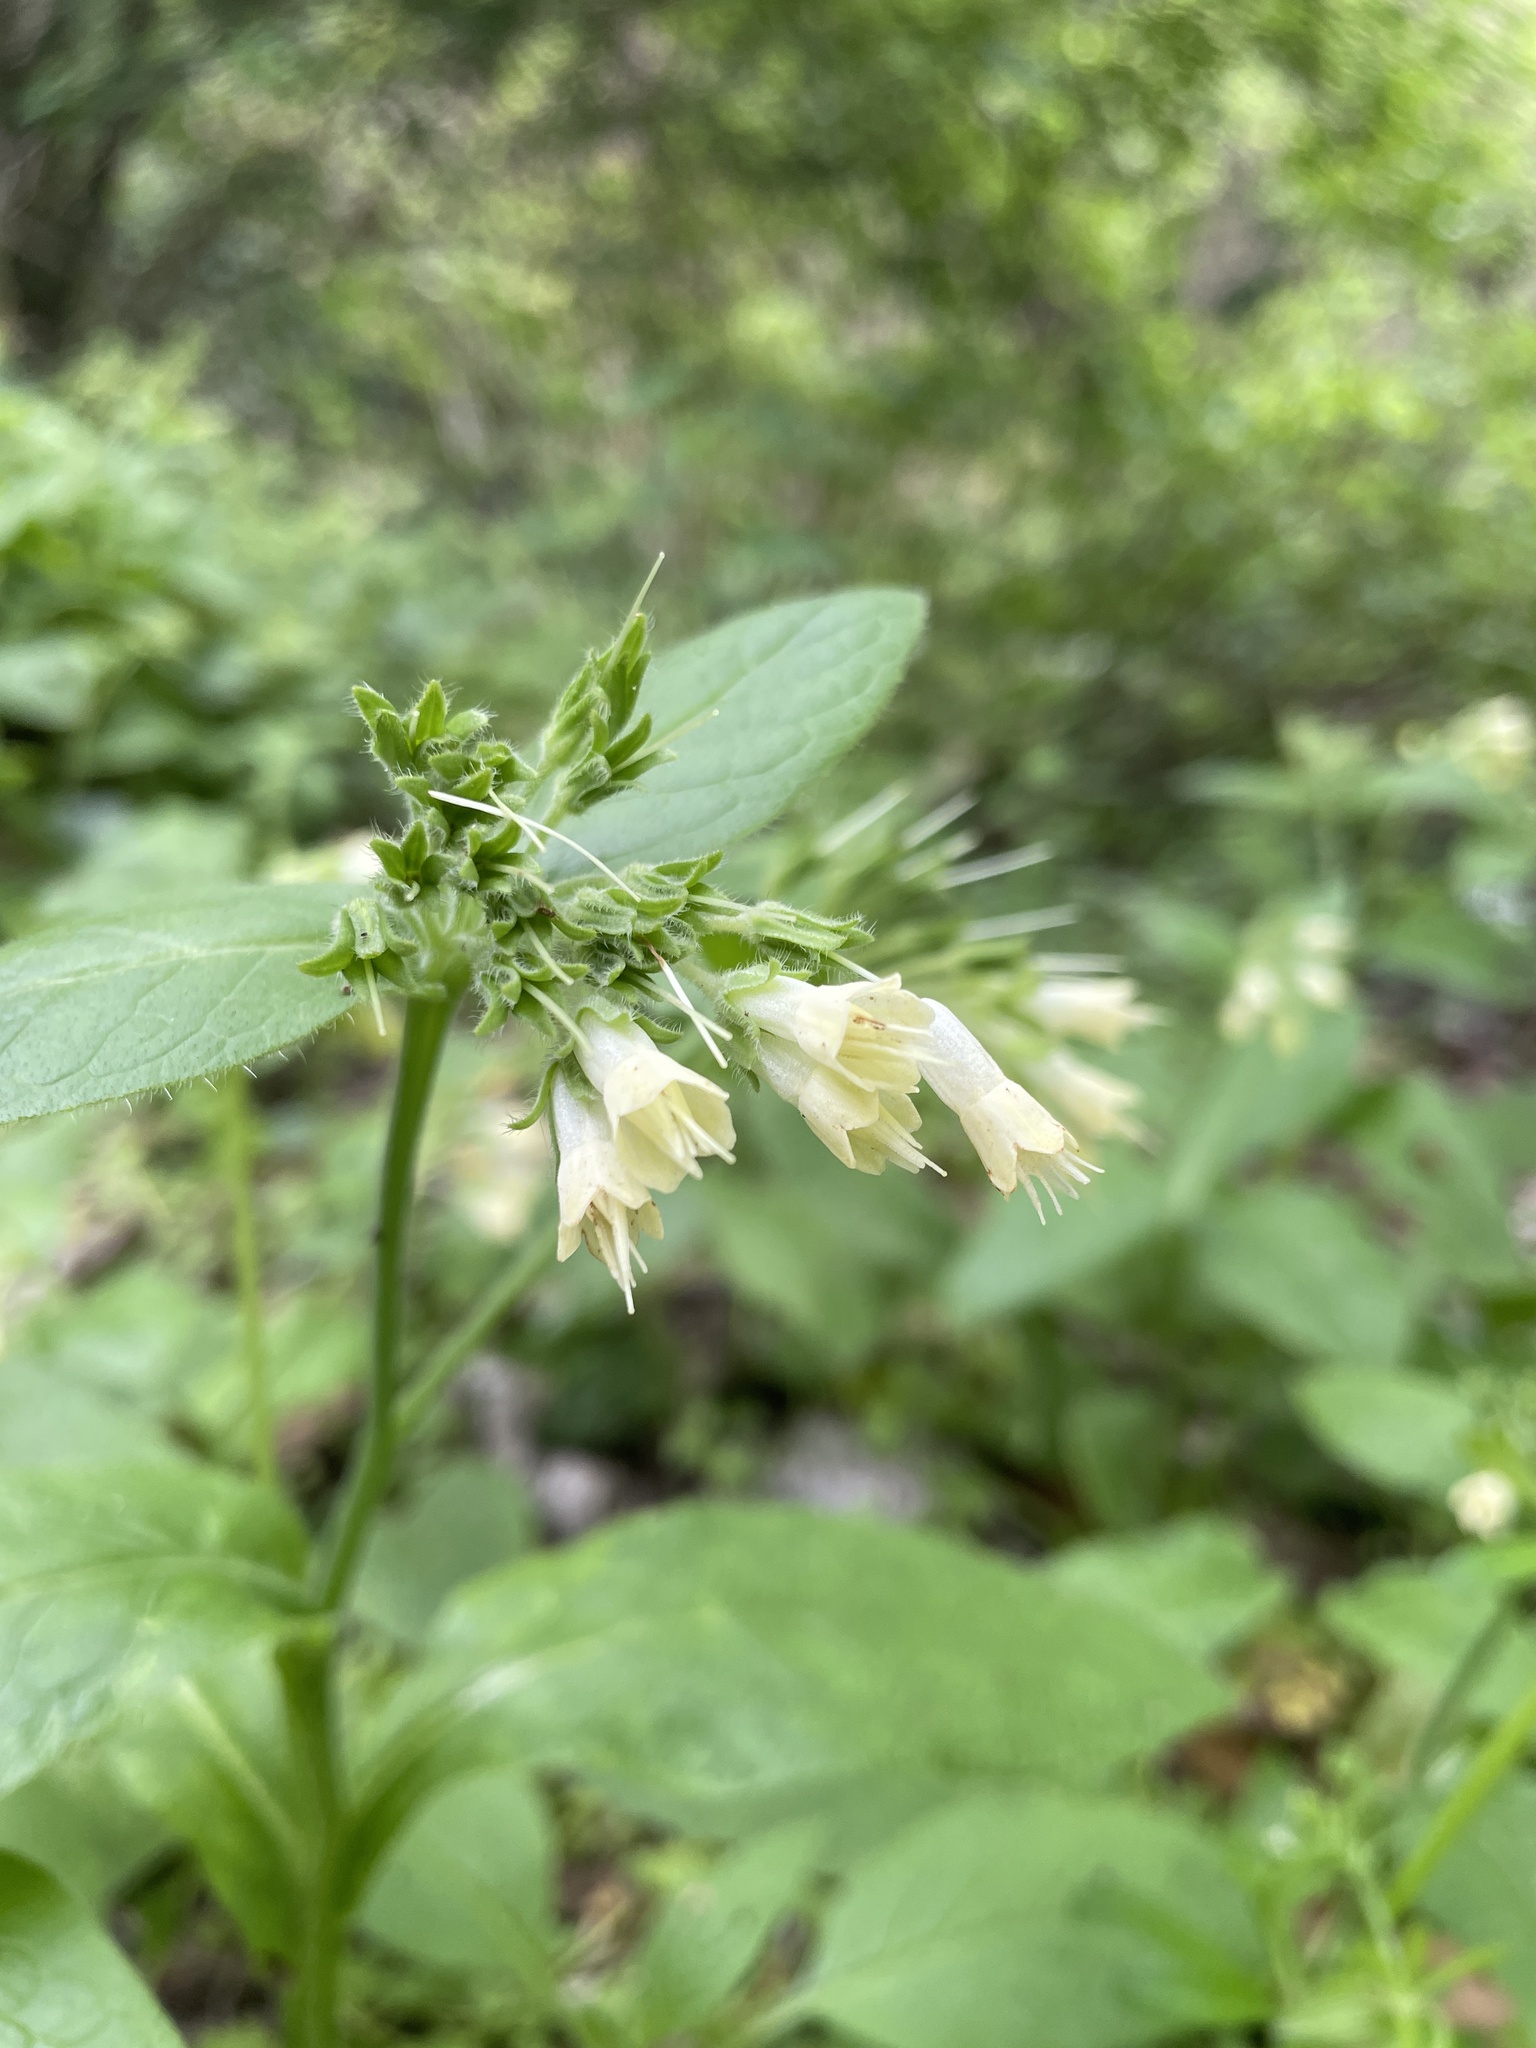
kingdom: Plantae
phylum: Tracheophyta
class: Magnoliopsida
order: Boraginales
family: Boraginaceae
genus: Symphytum
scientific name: Symphytum bulbosum
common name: Bulbous comfrey
